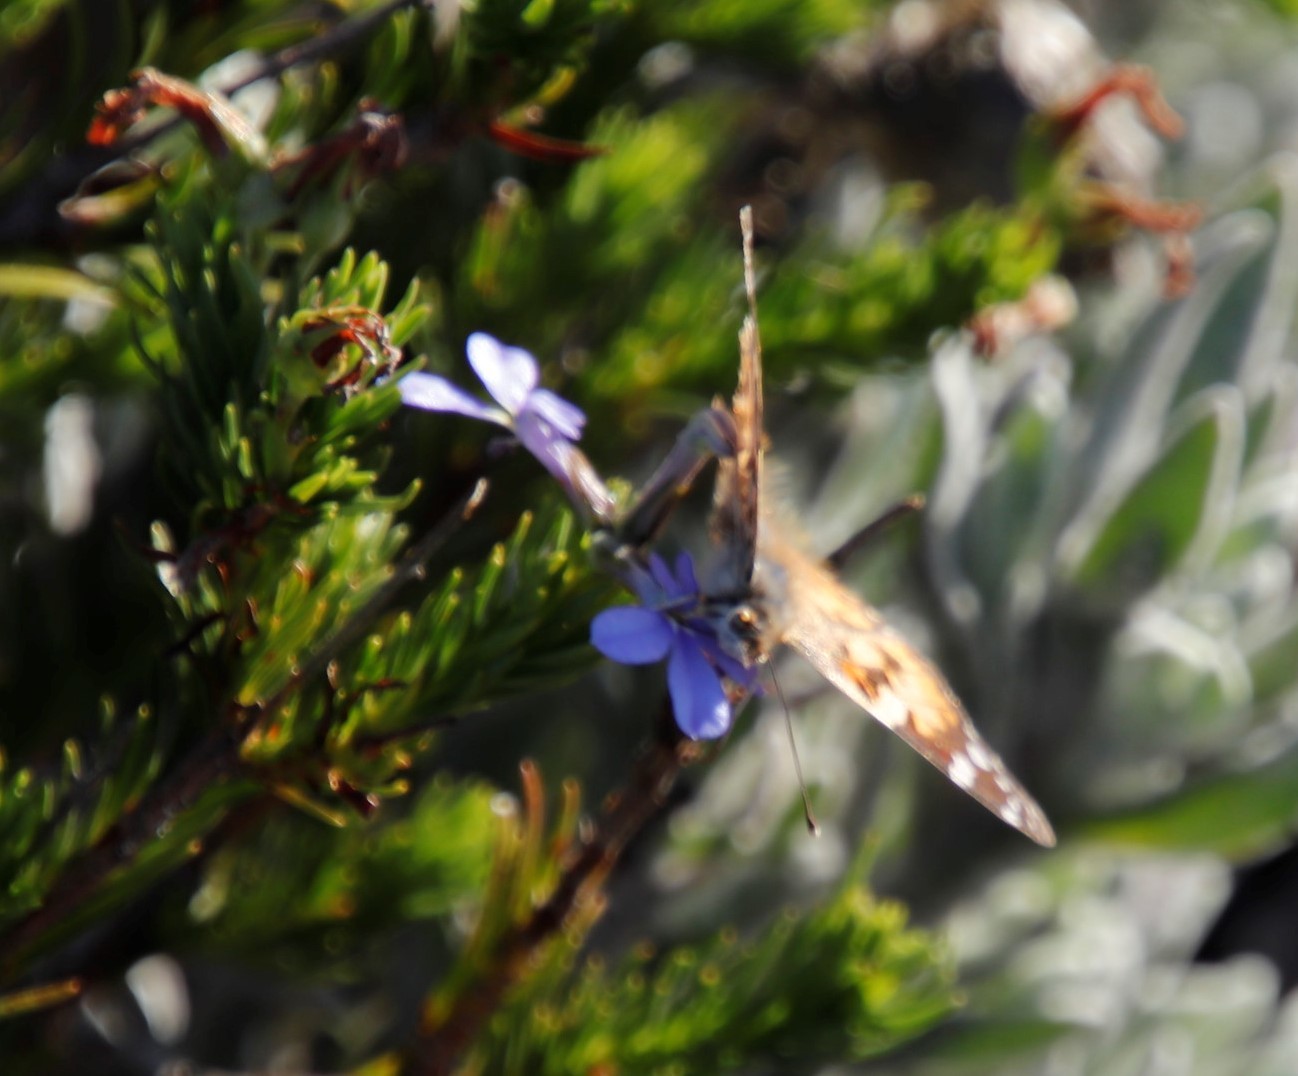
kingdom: Animalia
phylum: Arthropoda
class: Insecta
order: Lepidoptera
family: Nymphalidae
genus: Vanessa
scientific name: Vanessa cardui
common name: Painted lady
